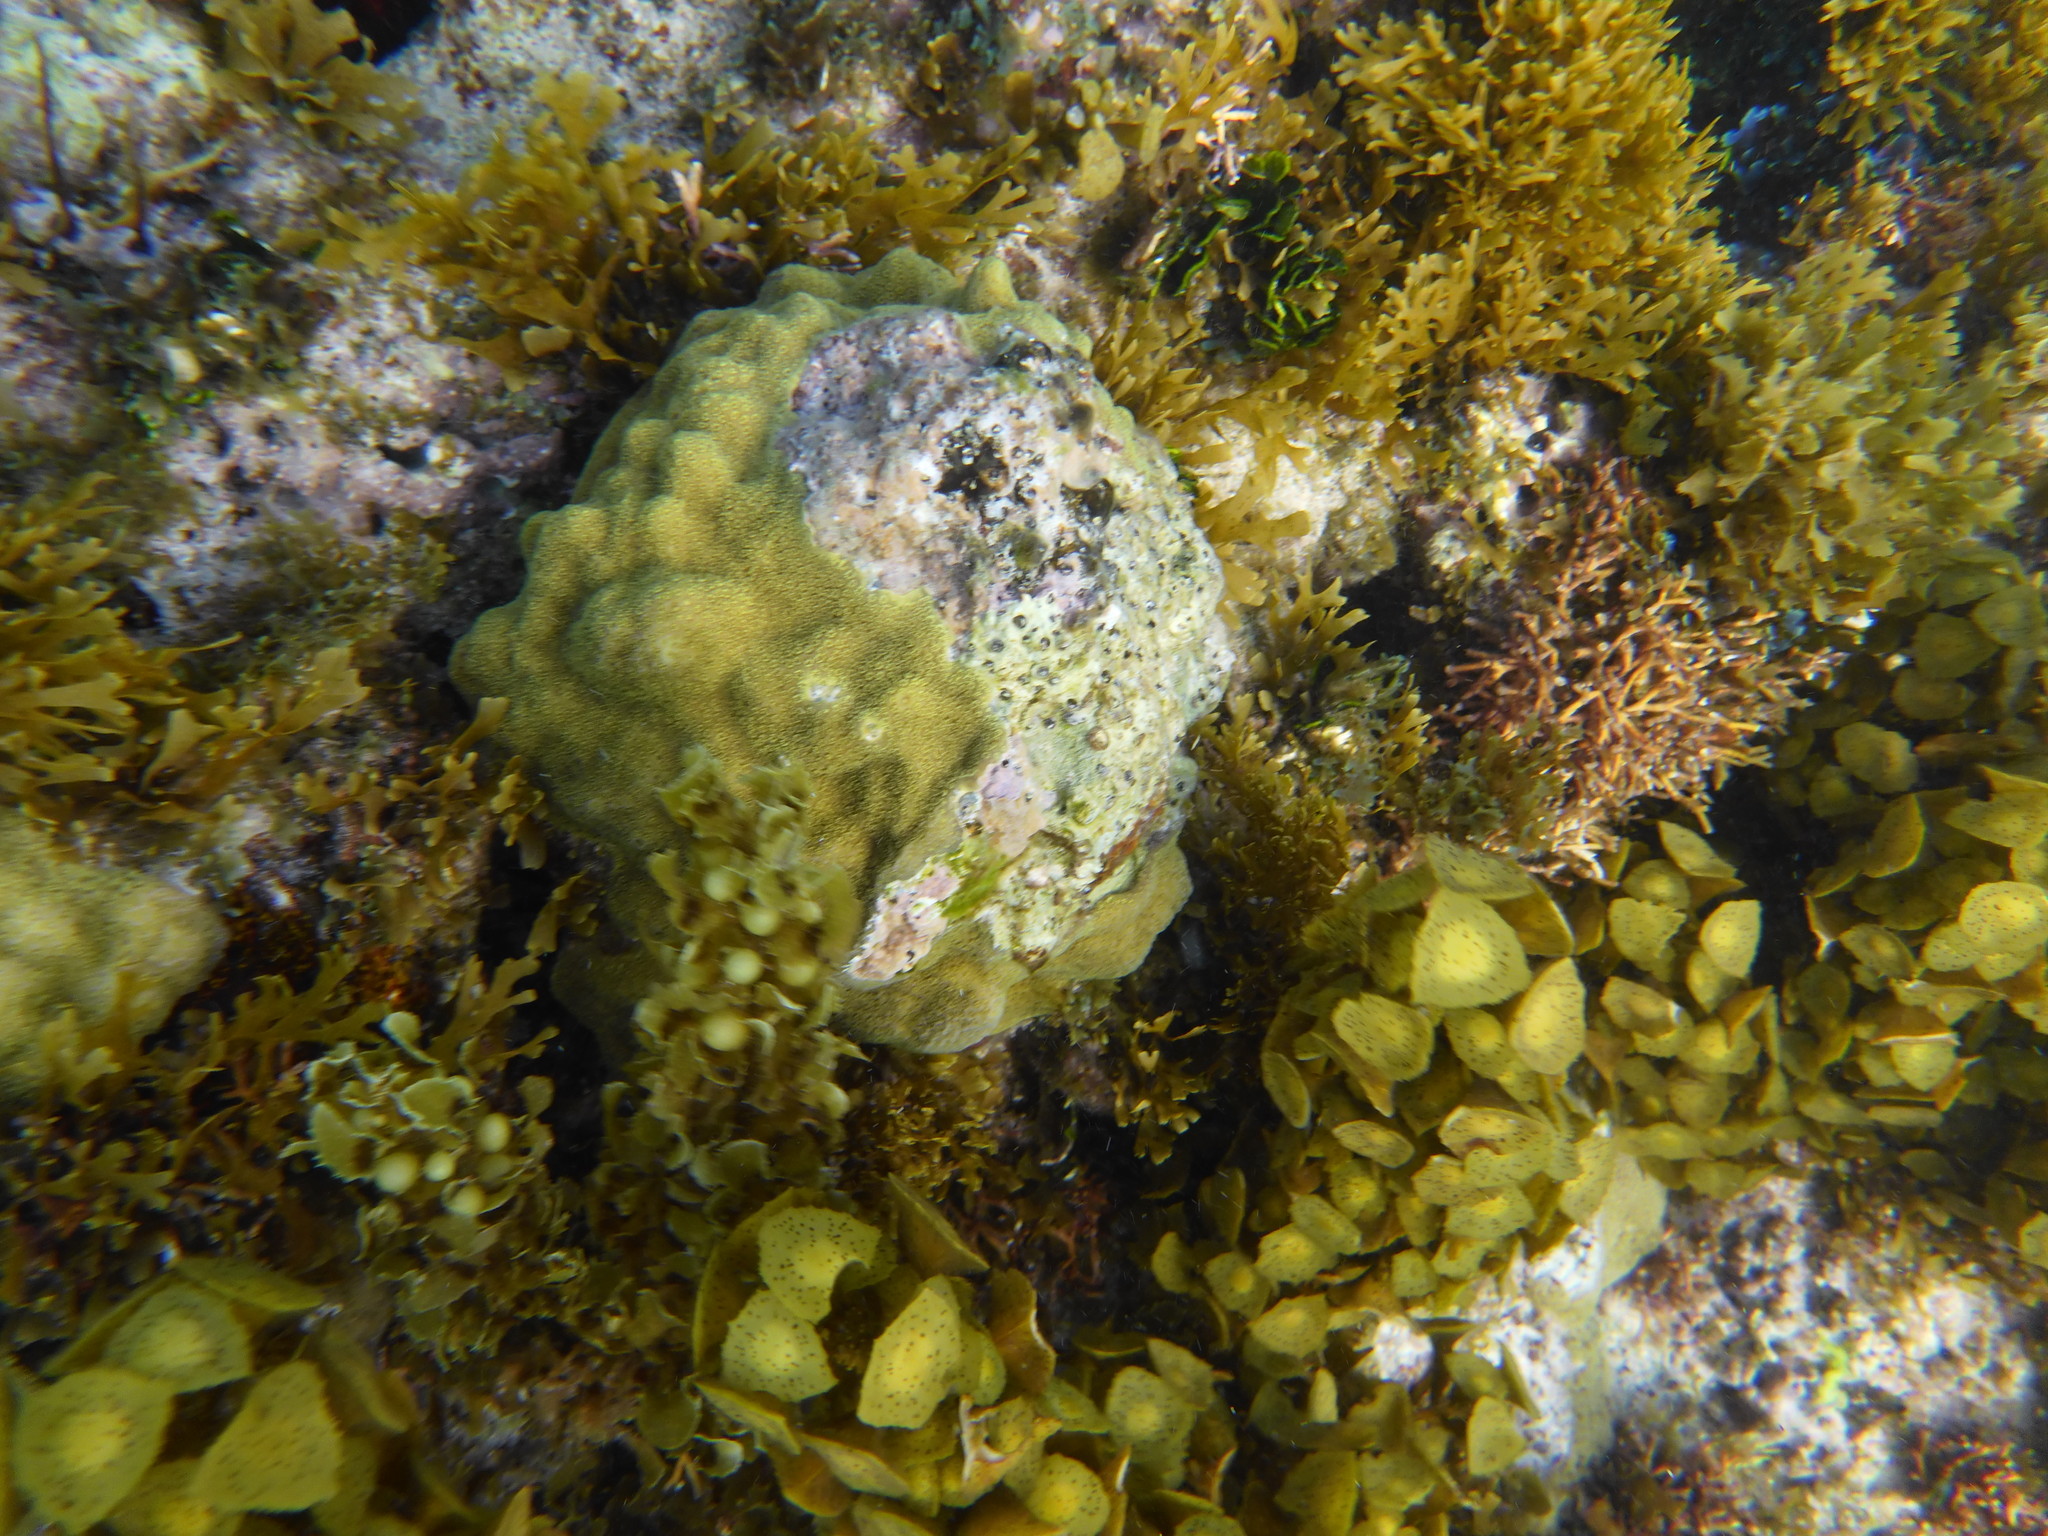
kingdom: Animalia
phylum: Cnidaria
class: Anthozoa
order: Scleractinia
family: Poritidae
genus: Porites
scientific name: Porites astreoides
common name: Mustard hill coral
